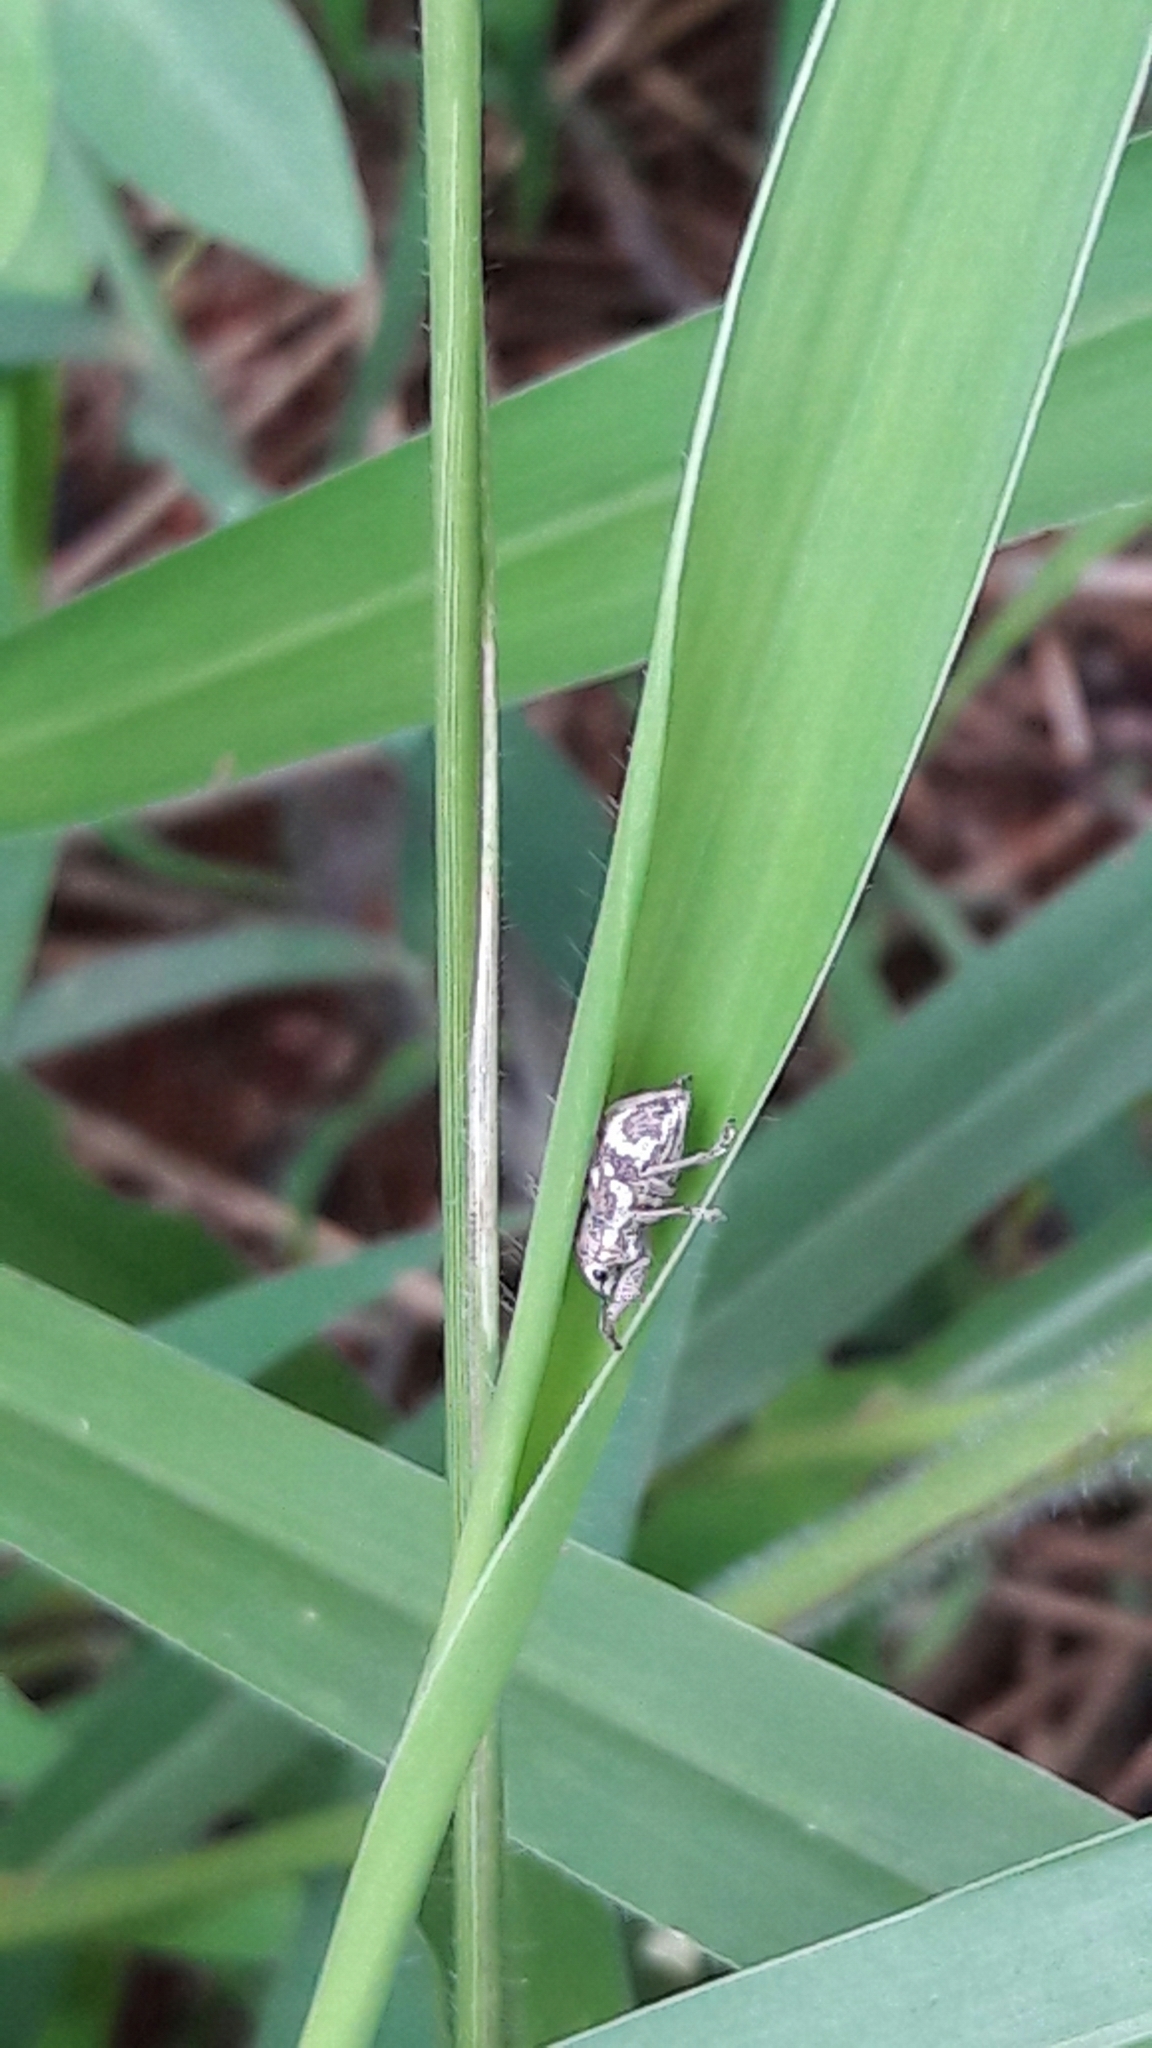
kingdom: Animalia
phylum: Arthropoda
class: Insecta
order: Coleoptera
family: Curculionidae
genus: Parapantomorus
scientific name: Parapantomorus fluctuosus
